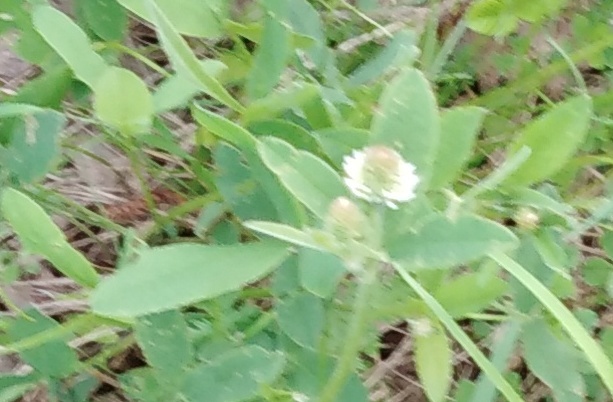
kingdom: Plantae
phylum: Tracheophyta
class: Magnoliopsida
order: Fabales
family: Fabaceae
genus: Trifolium
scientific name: Trifolium montanum
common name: Mountain clover
